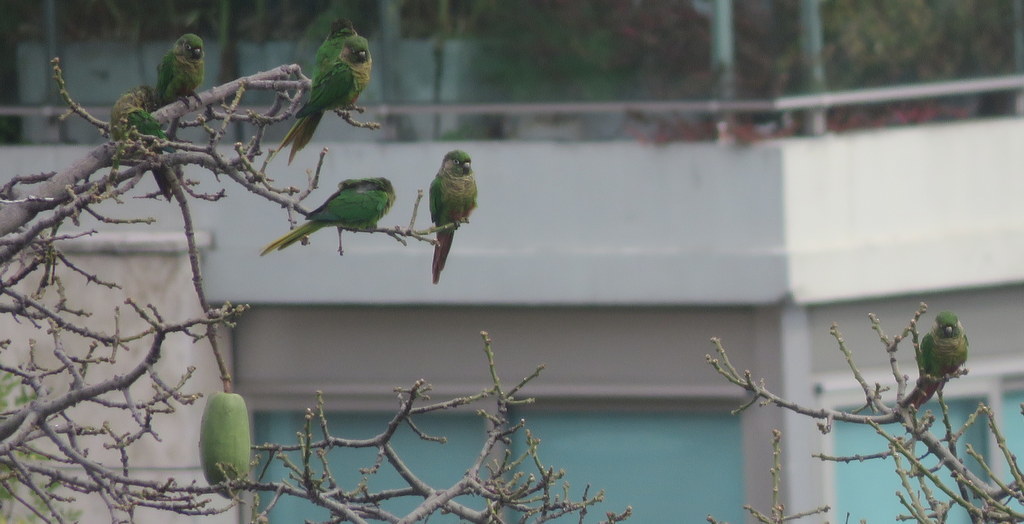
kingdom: Animalia
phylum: Chordata
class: Aves
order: Psittaciformes
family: Psittacidae
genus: Pyrrhura
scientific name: Pyrrhura frontalis
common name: Maroon-bellied parakeet
